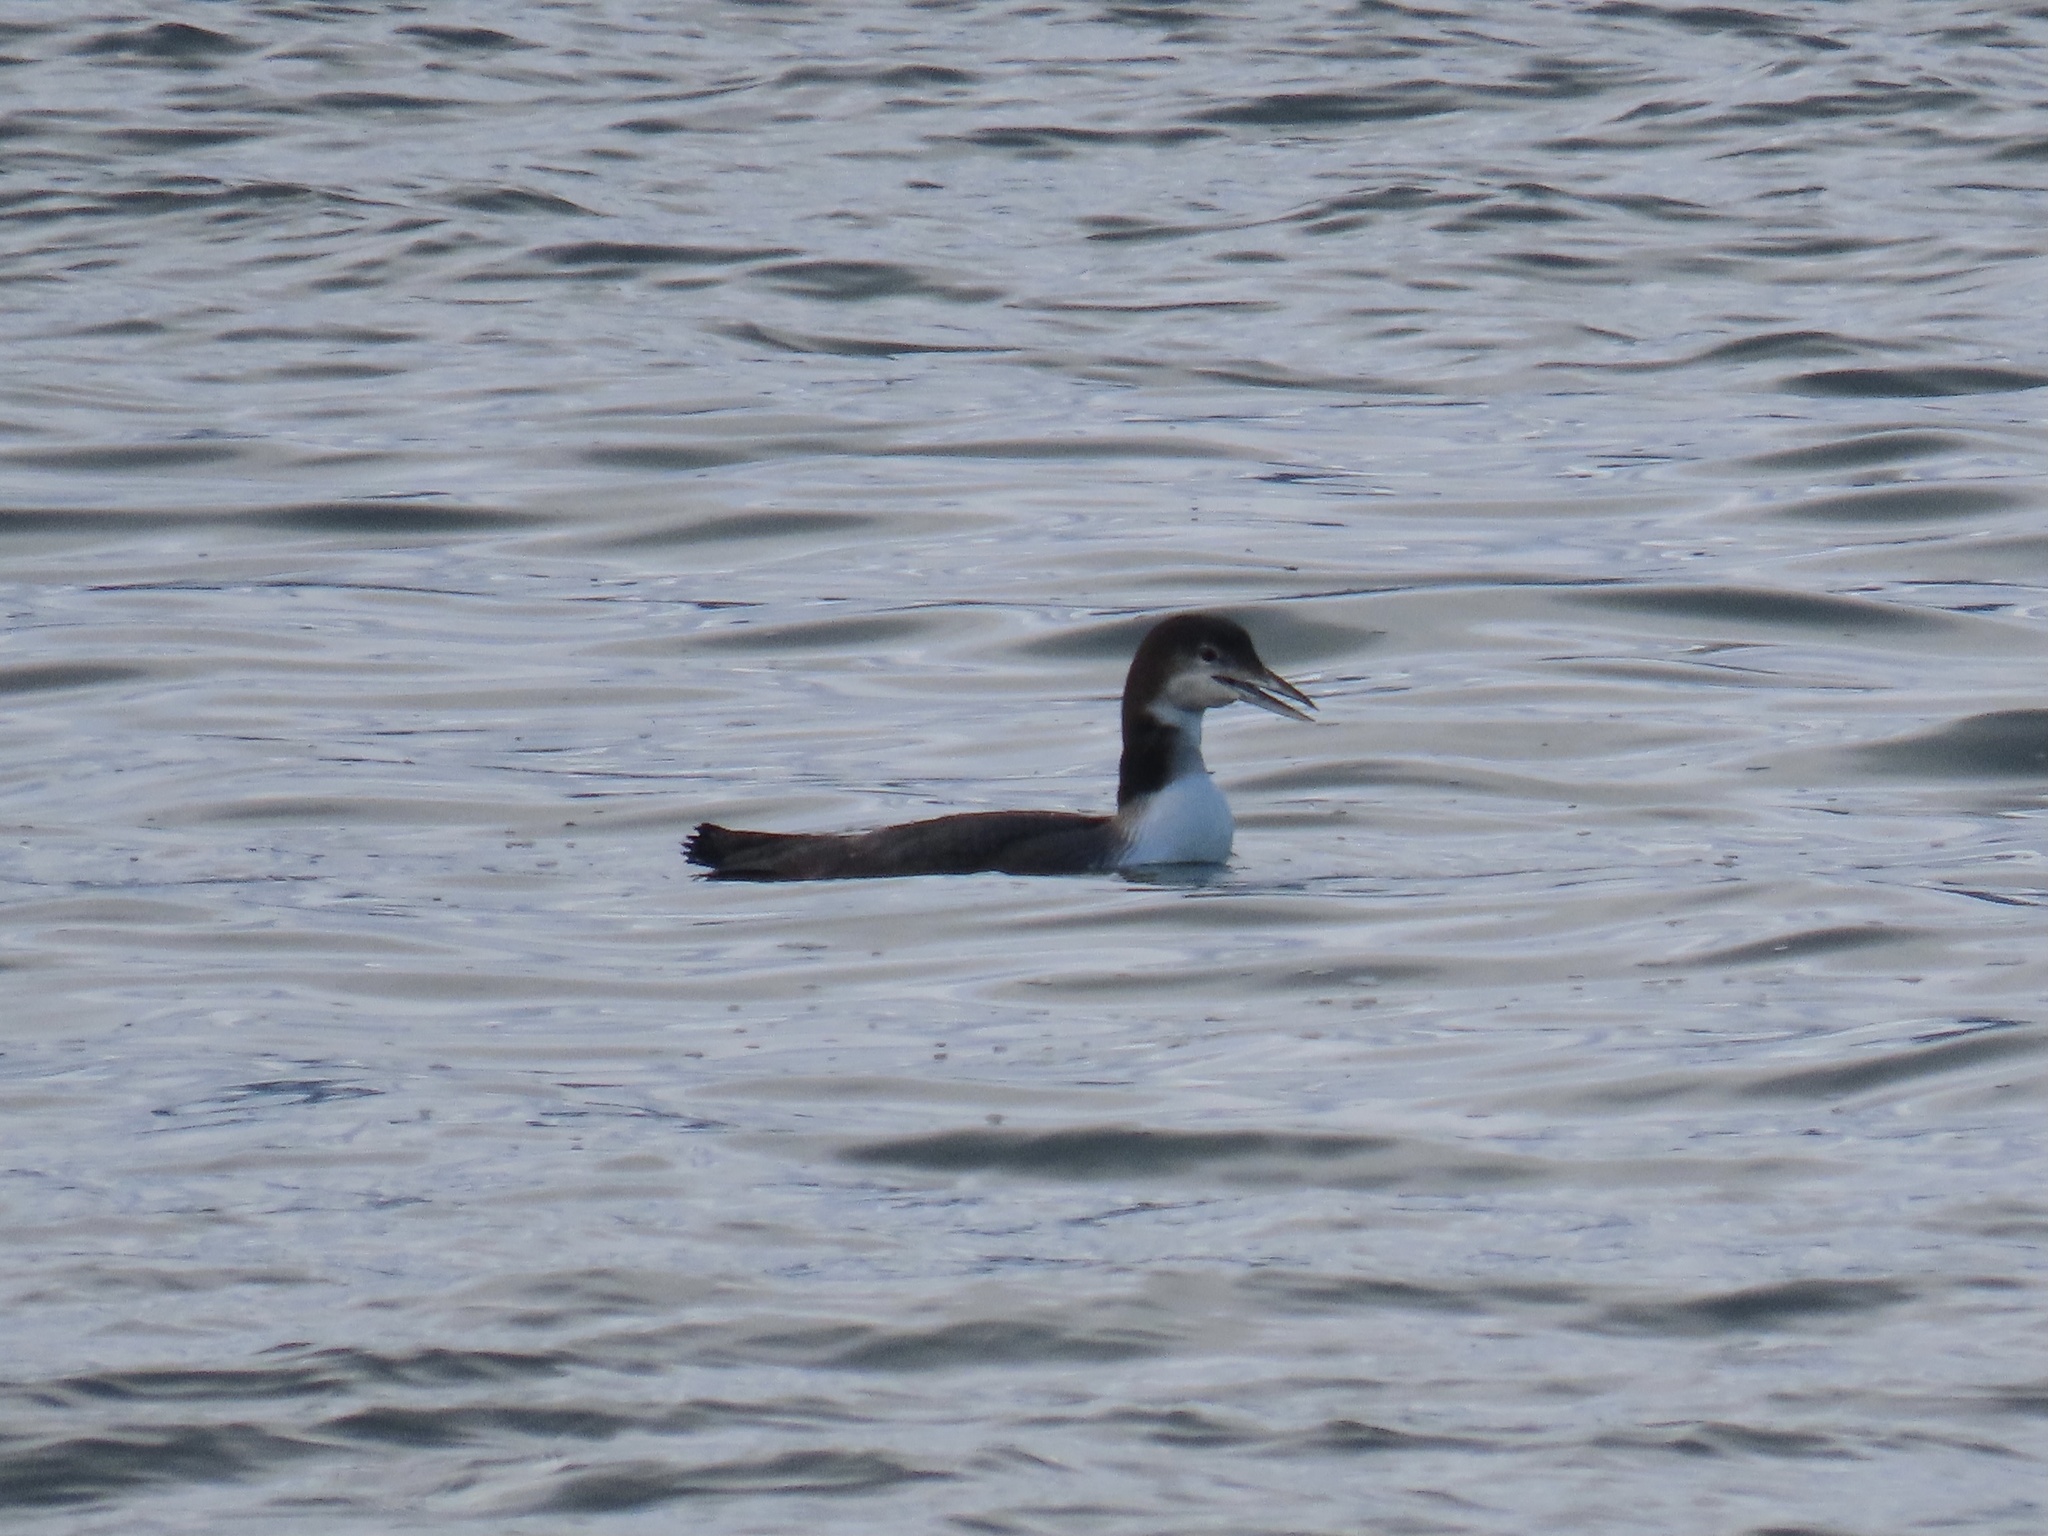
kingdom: Animalia
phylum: Chordata
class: Aves
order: Gaviiformes
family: Gaviidae
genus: Gavia
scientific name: Gavia immer
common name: Common loon
